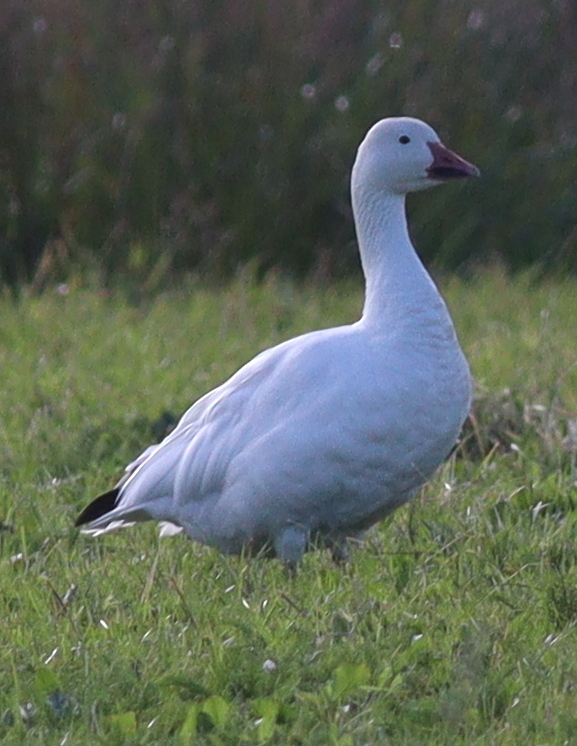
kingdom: Animalia
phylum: Chordata
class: Aves
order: Anseriformes
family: Anatidae
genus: Anser
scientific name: Anser caerulescens
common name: Snow goose
